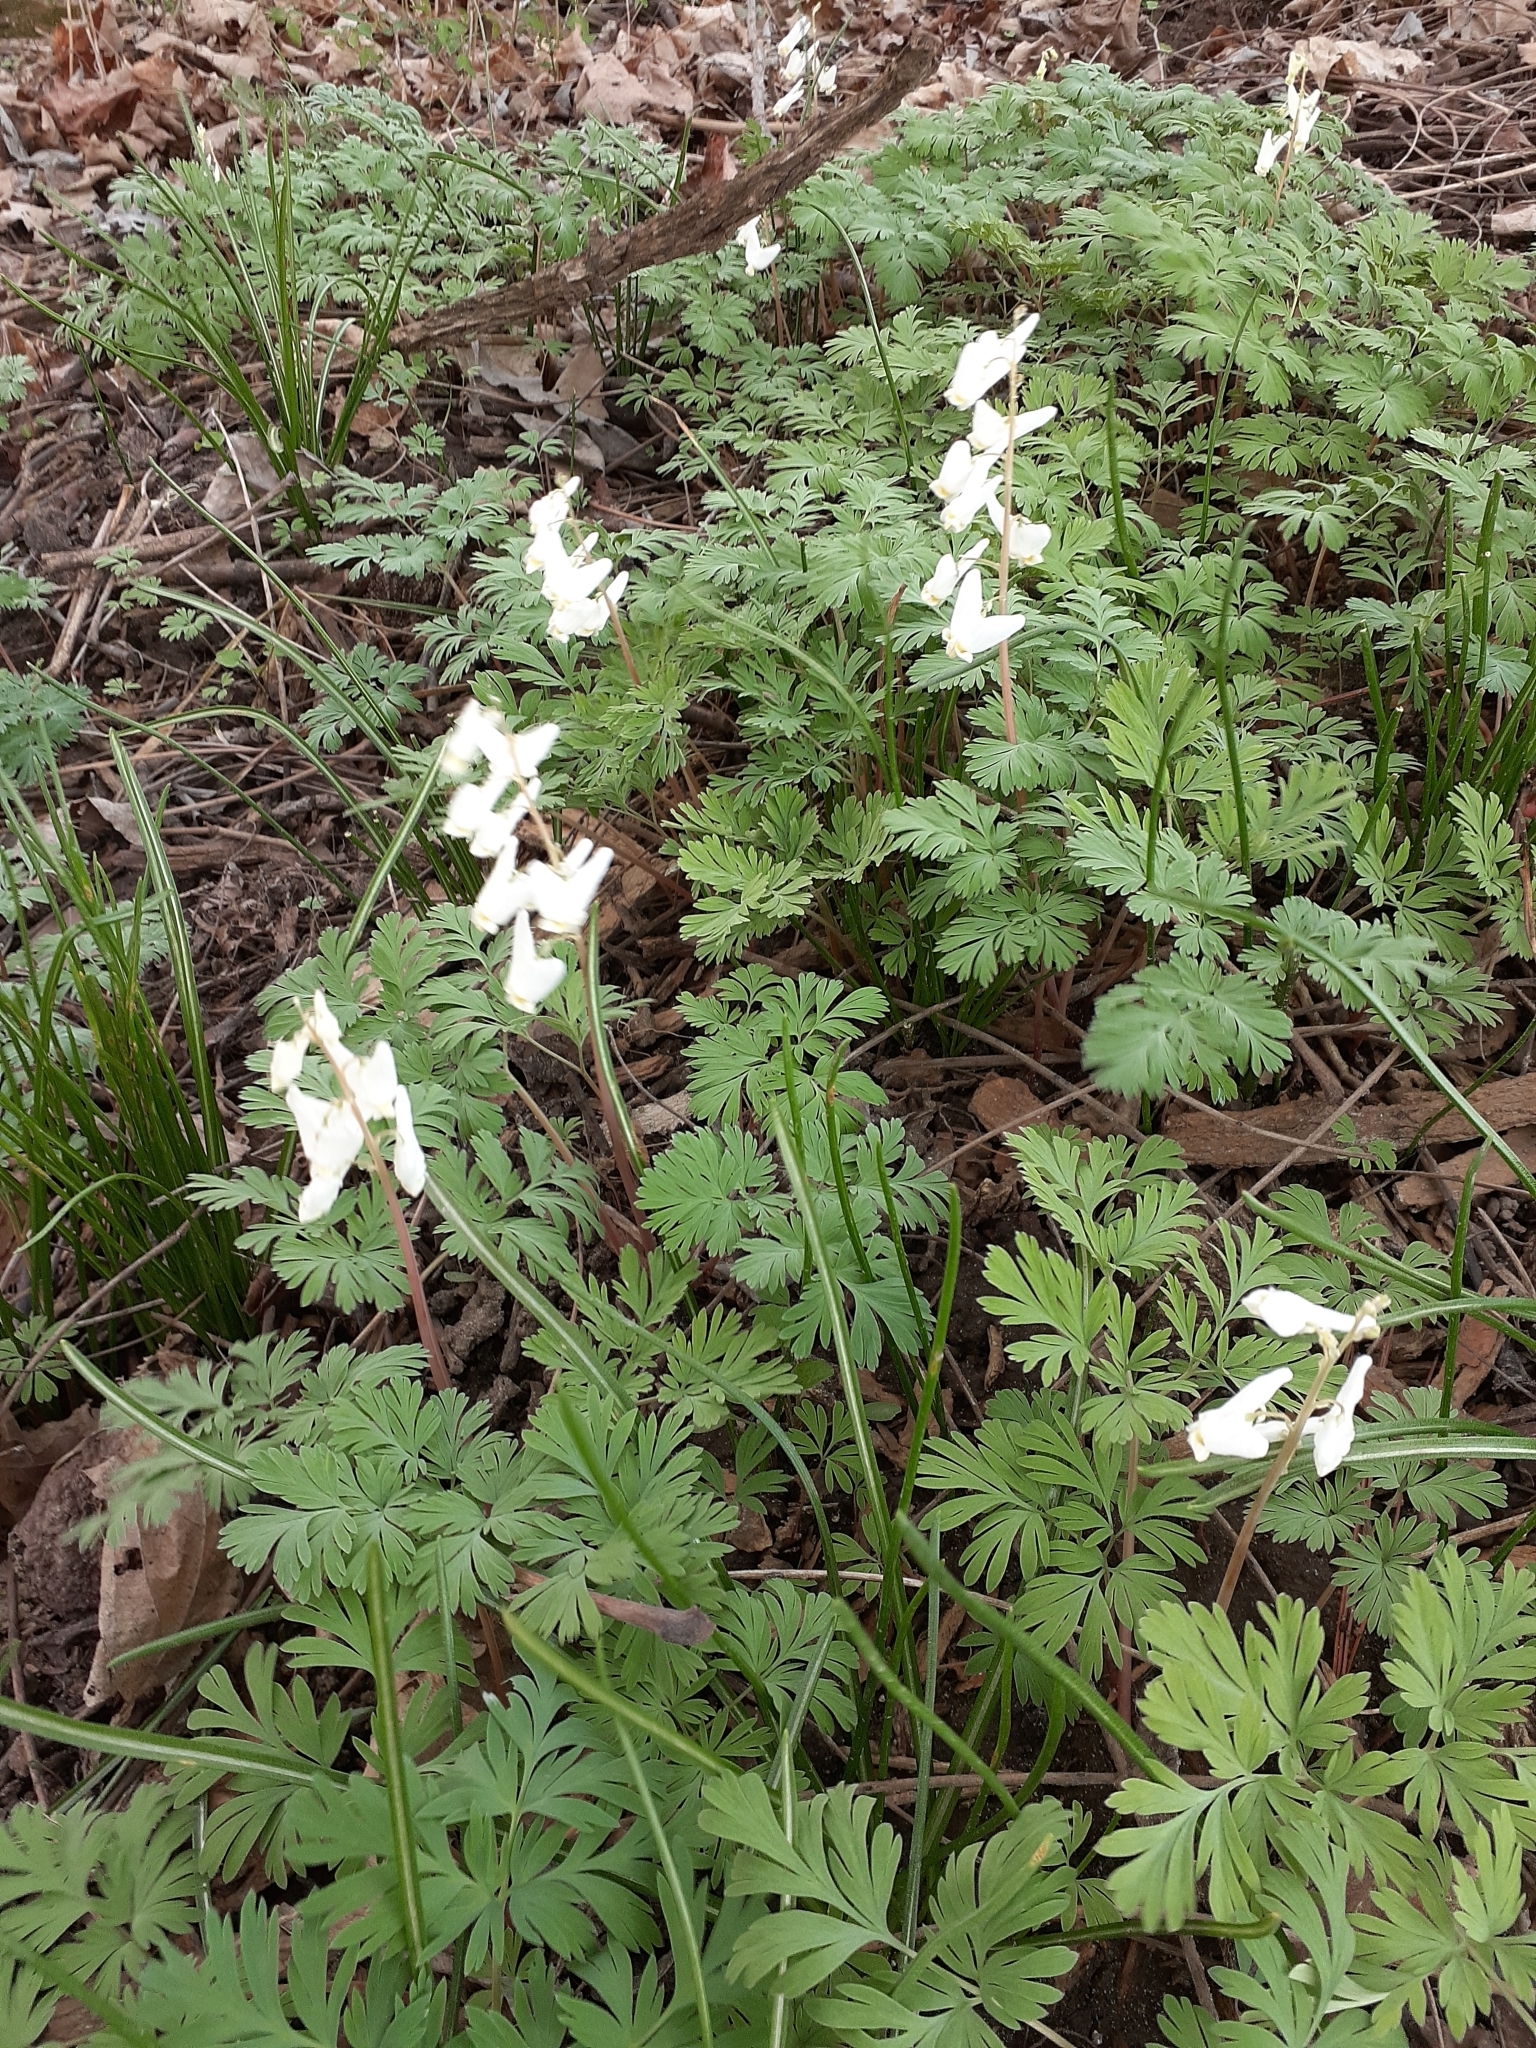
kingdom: Plantae
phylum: Tracheophyta
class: Magnoliopsida
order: Ranunculales
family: Papaveraceae
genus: Dicentra
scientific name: Dicentra cucullaria
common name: Dutchman's breeches
